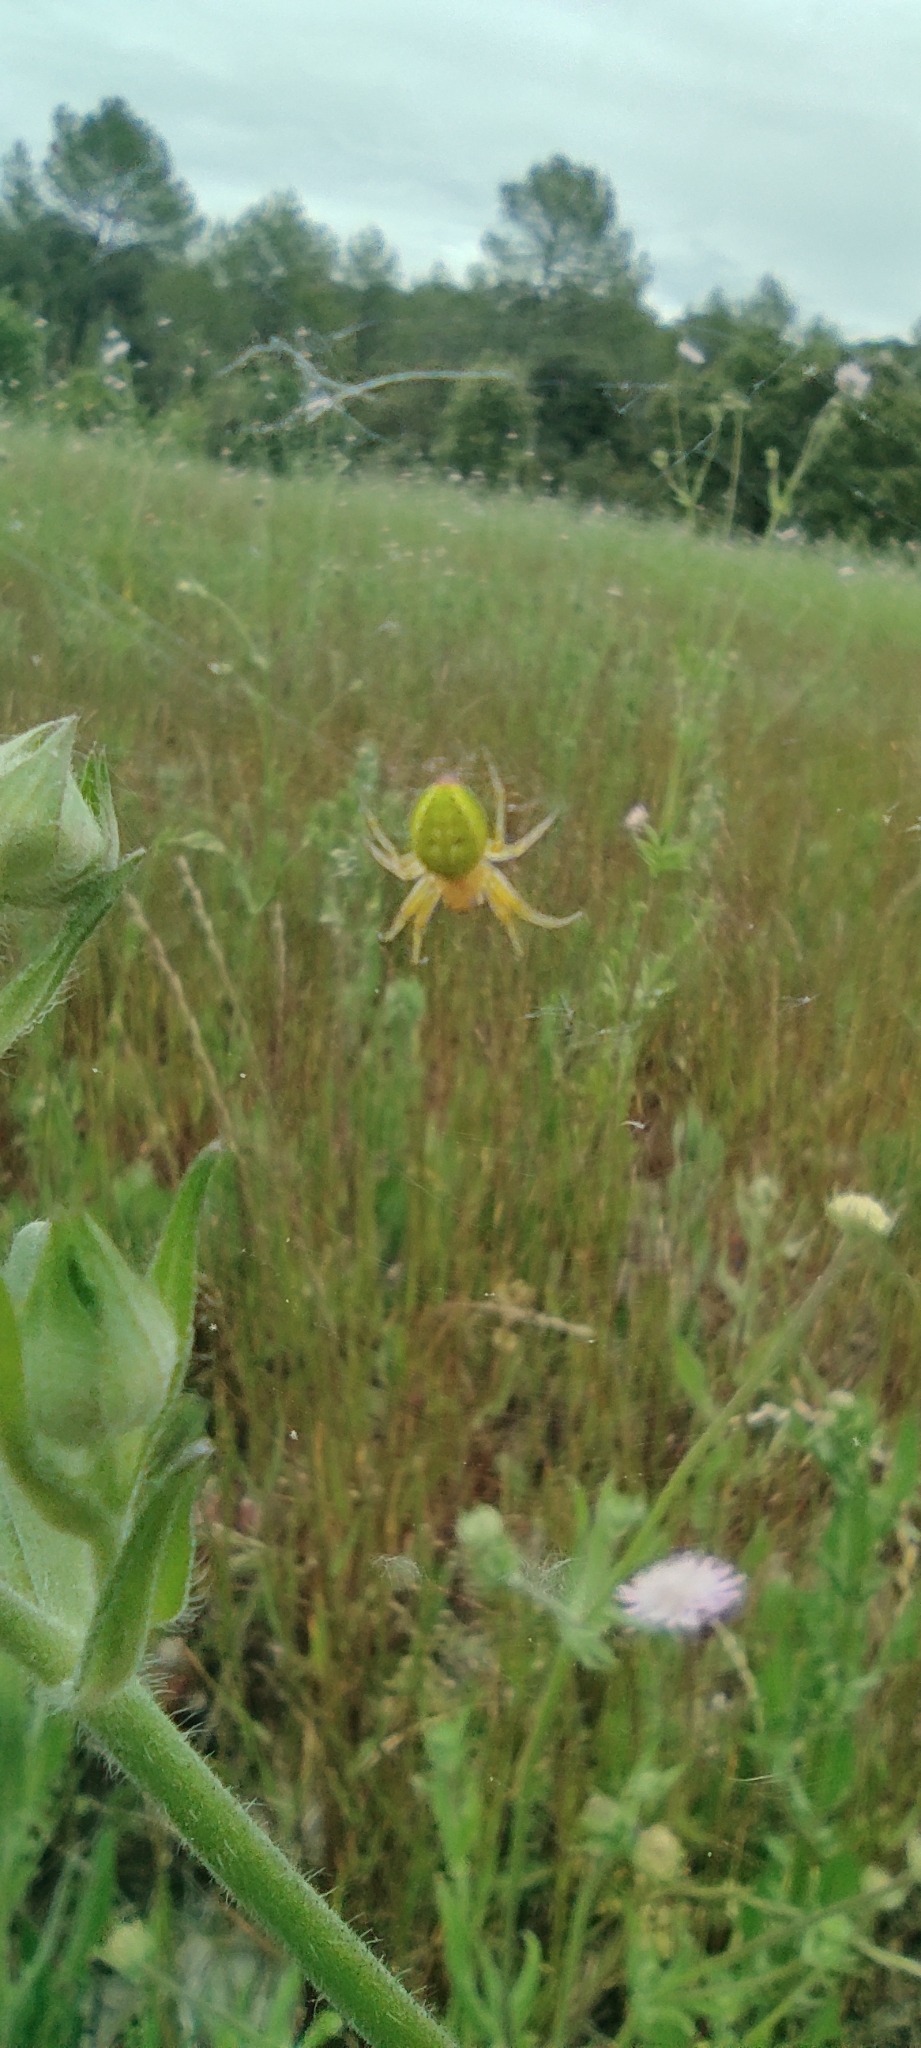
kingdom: Animalia
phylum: Arthropoda
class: Arachnida
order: Araneae
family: Araneidae
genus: Araniella
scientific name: Araniella
